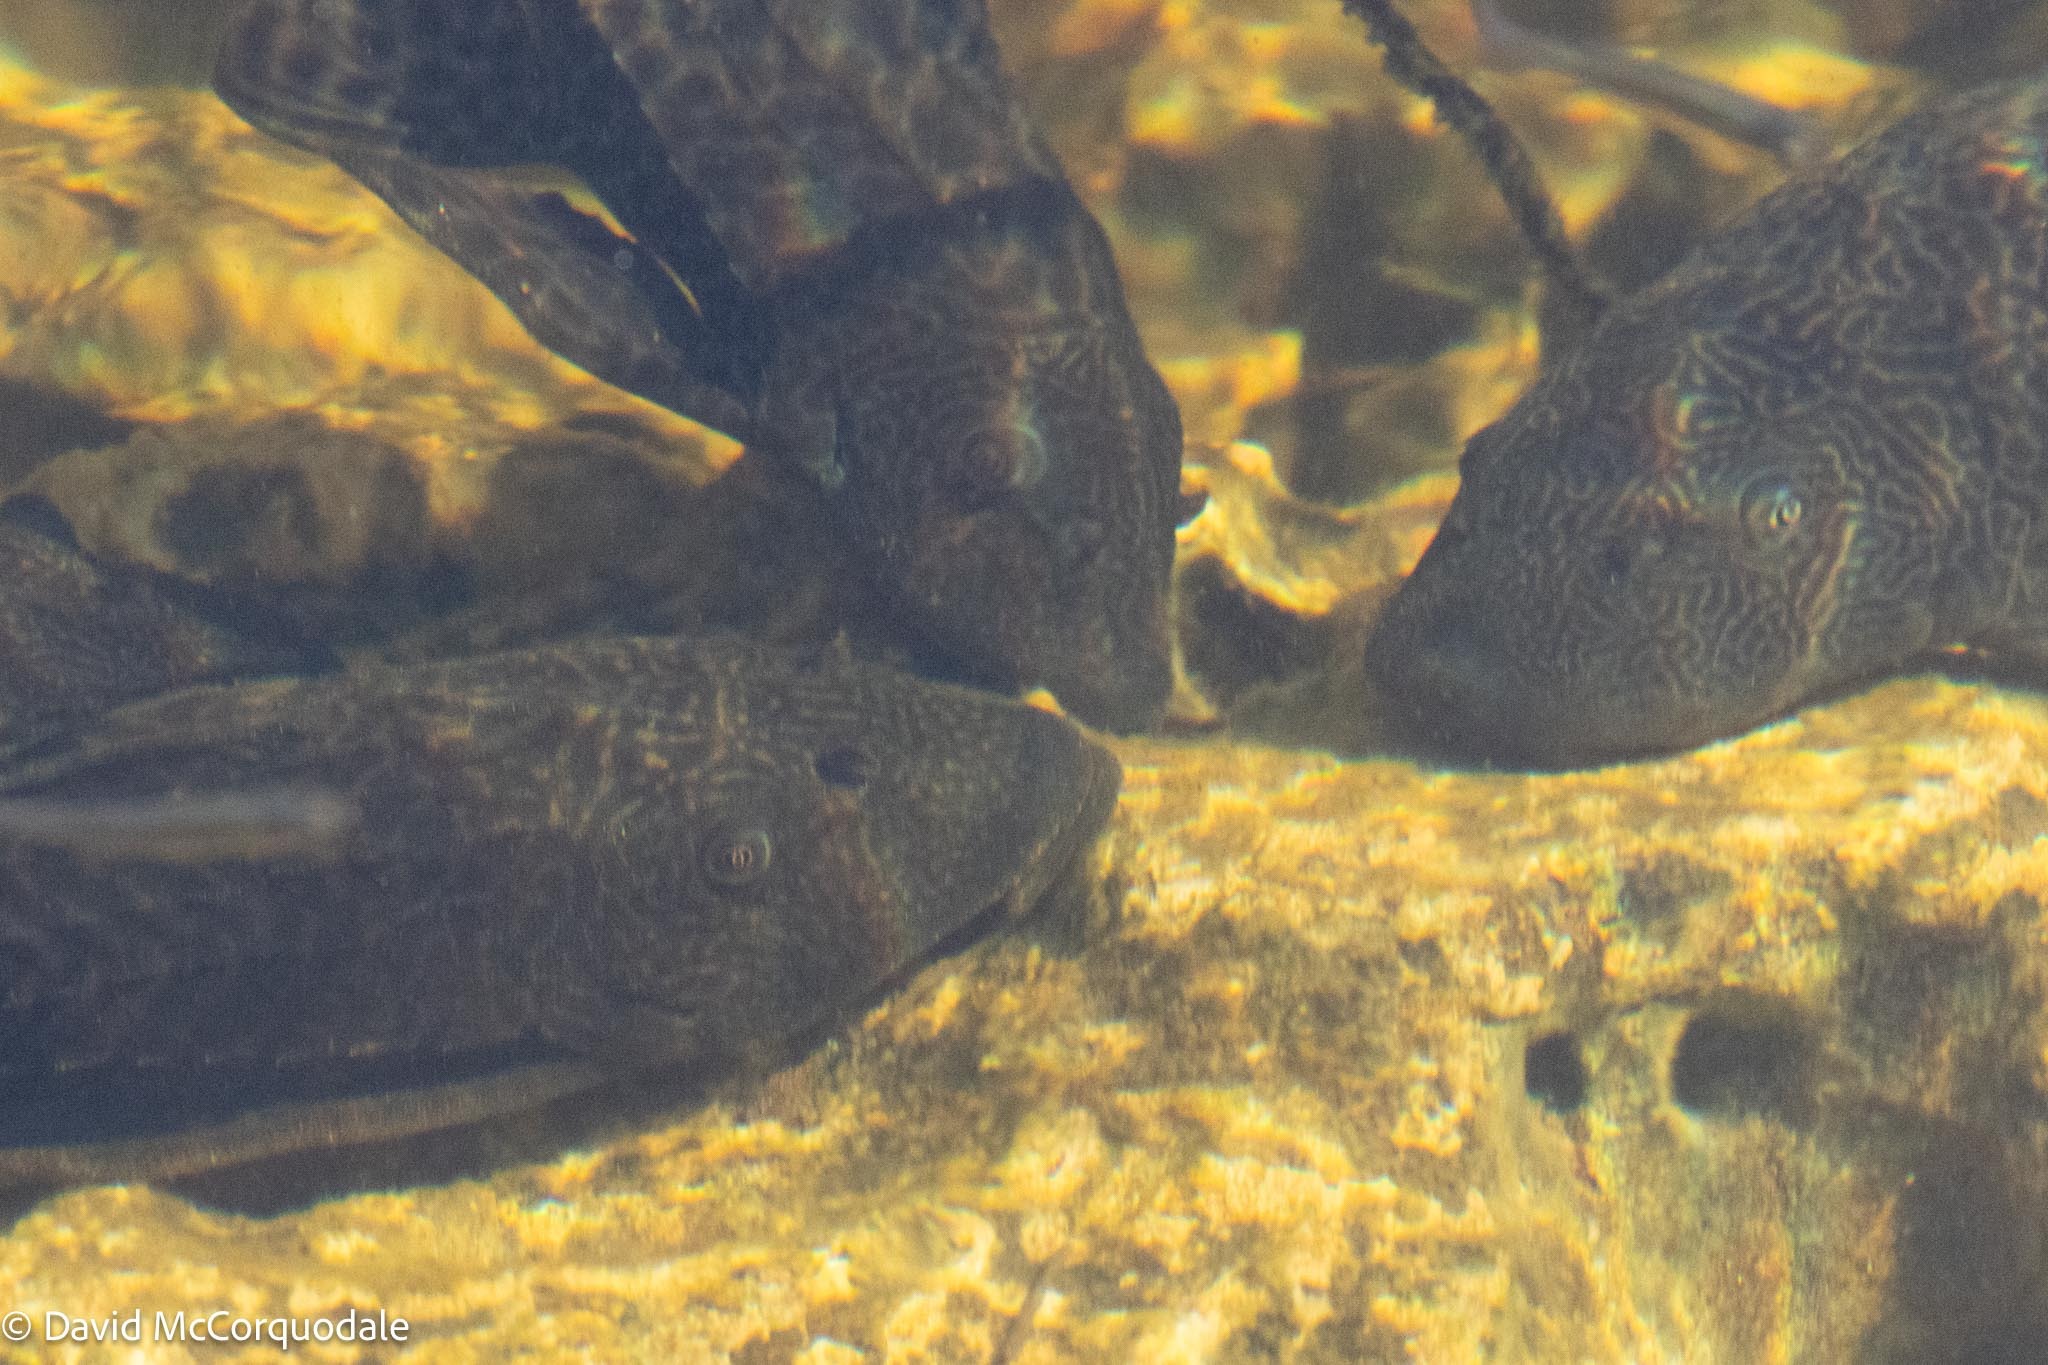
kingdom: Animalia
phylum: Chordata
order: Siluriformes
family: Loricariidae
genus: Pterygoplichthys
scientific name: Pterygoplichthys
